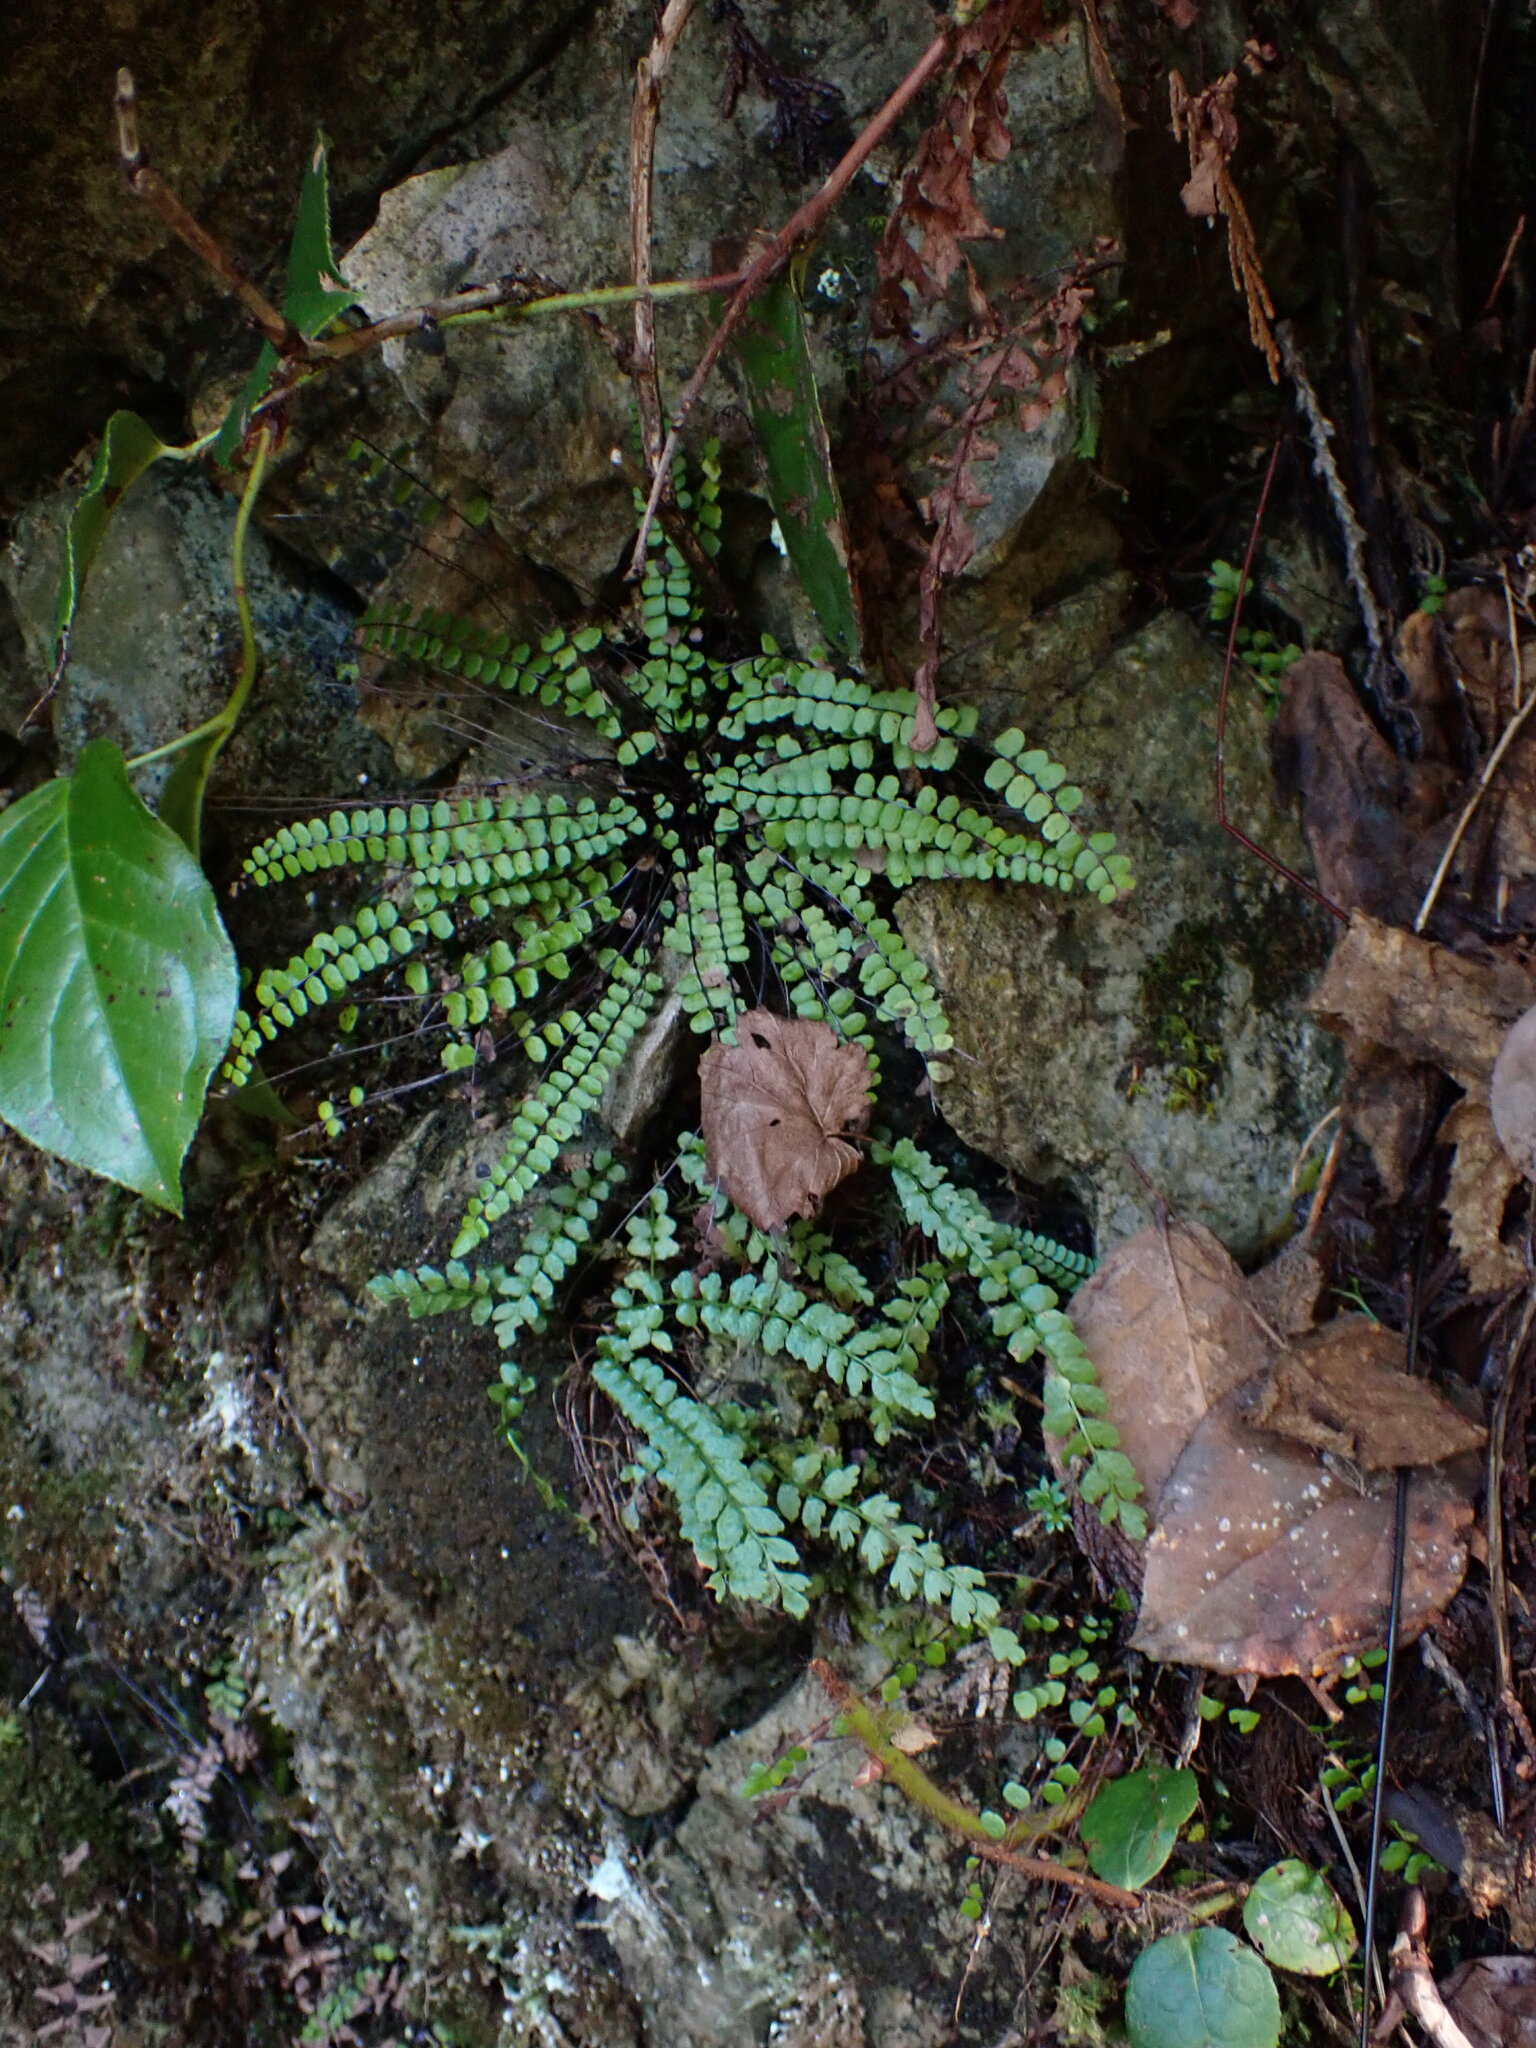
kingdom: Plantae
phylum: Tracheophyta
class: Polypodiopsida
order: Polypodiales
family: Aspleniaceae
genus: Asplenium
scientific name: Asplenium viride
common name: Green spleenwort
